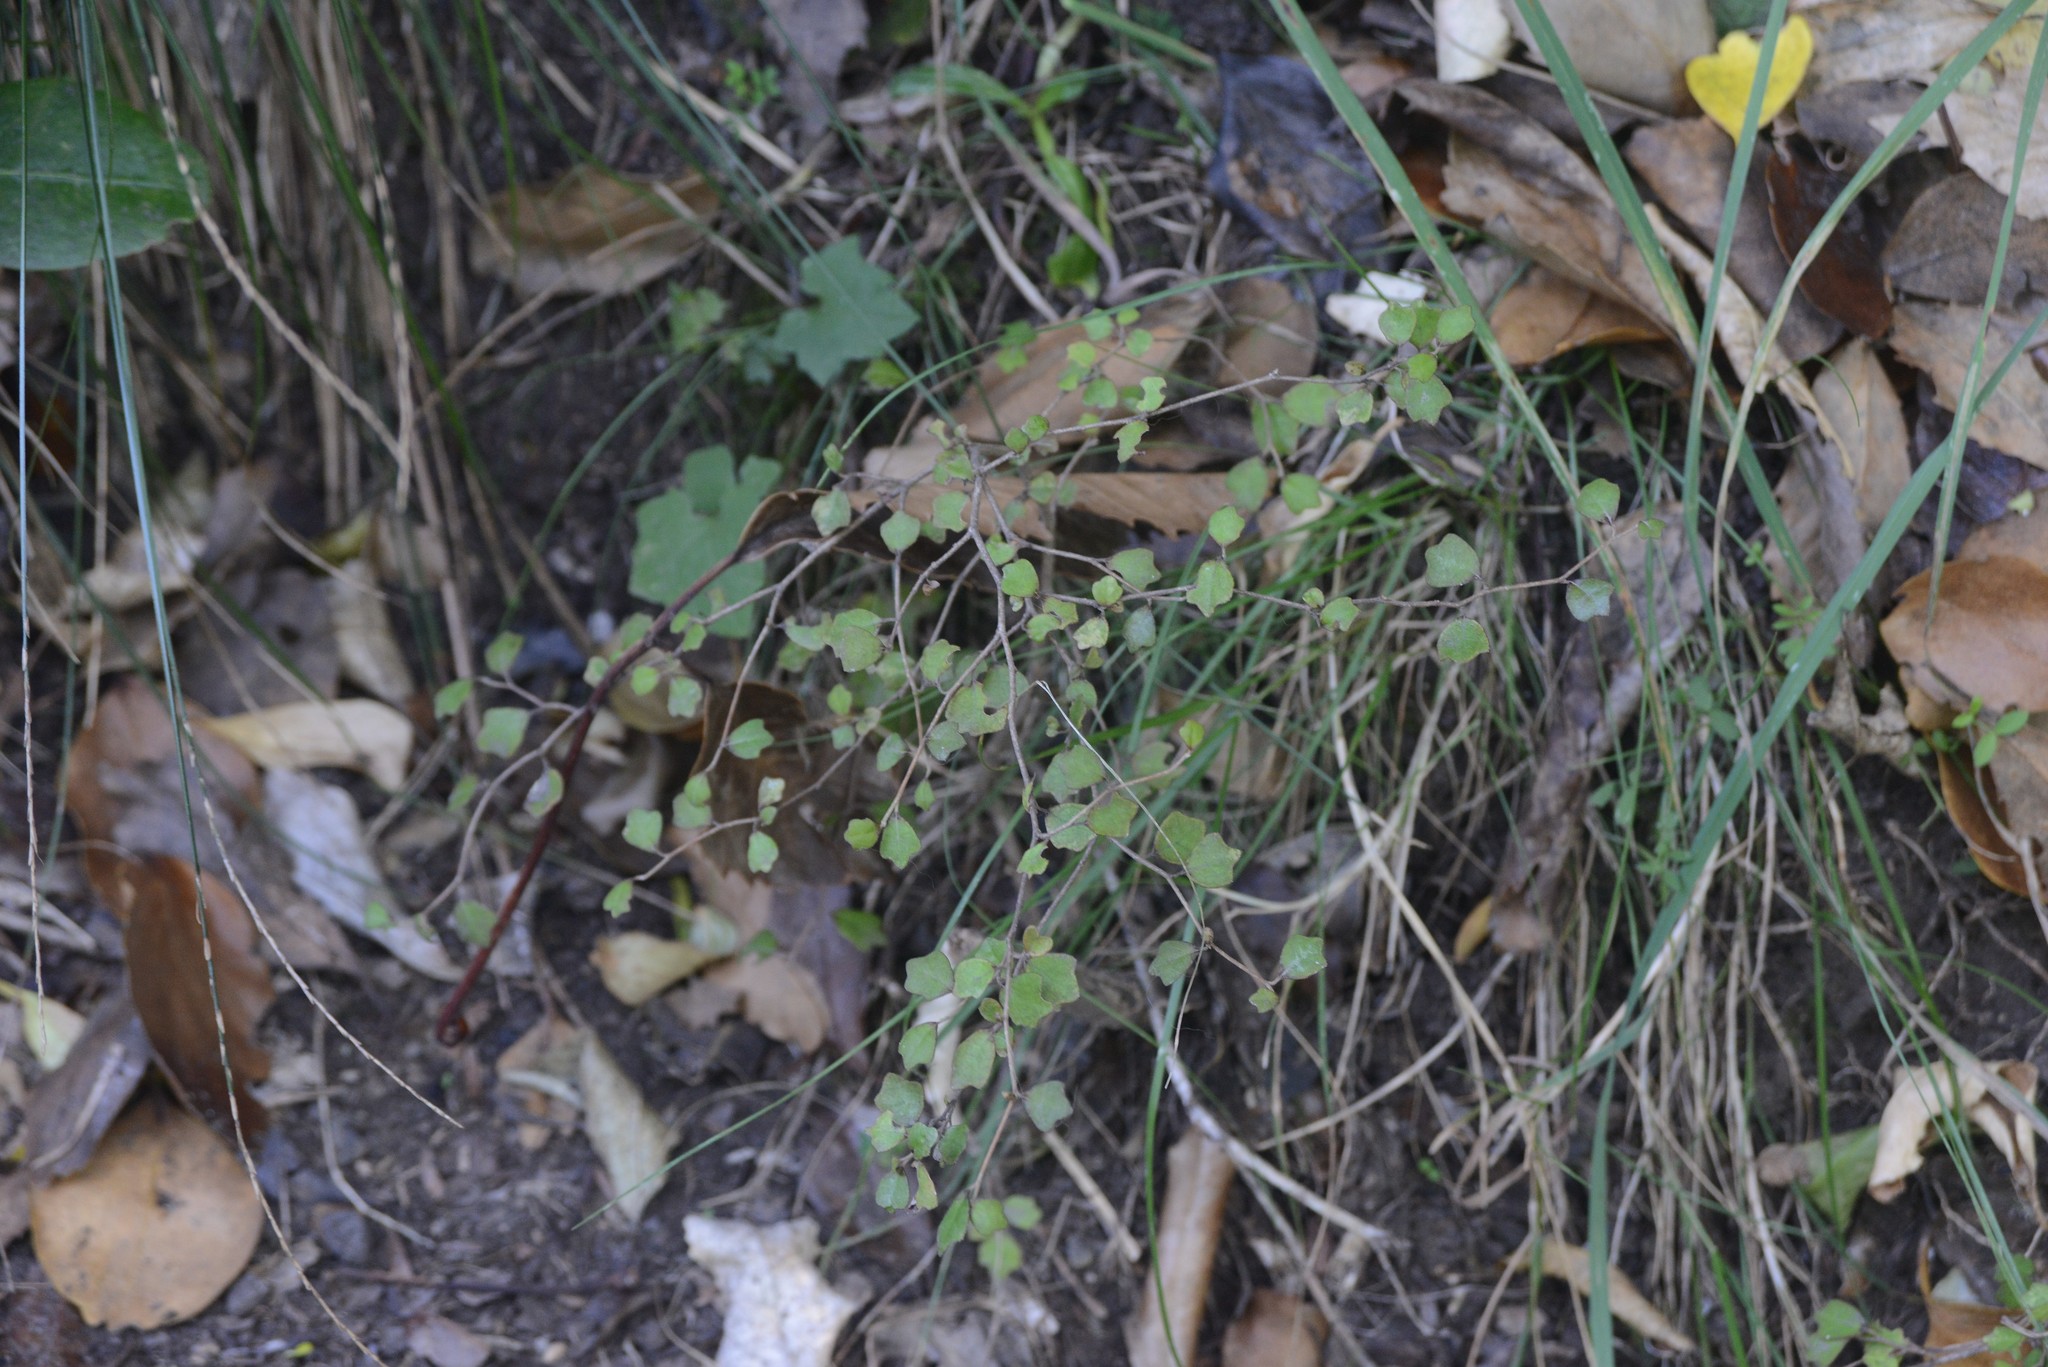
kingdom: Plantae
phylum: Tracheophyta
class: Magnoliopsida
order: Apiales
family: Pennantiaceae
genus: Pennantia
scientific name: Pennantia corymbosa
